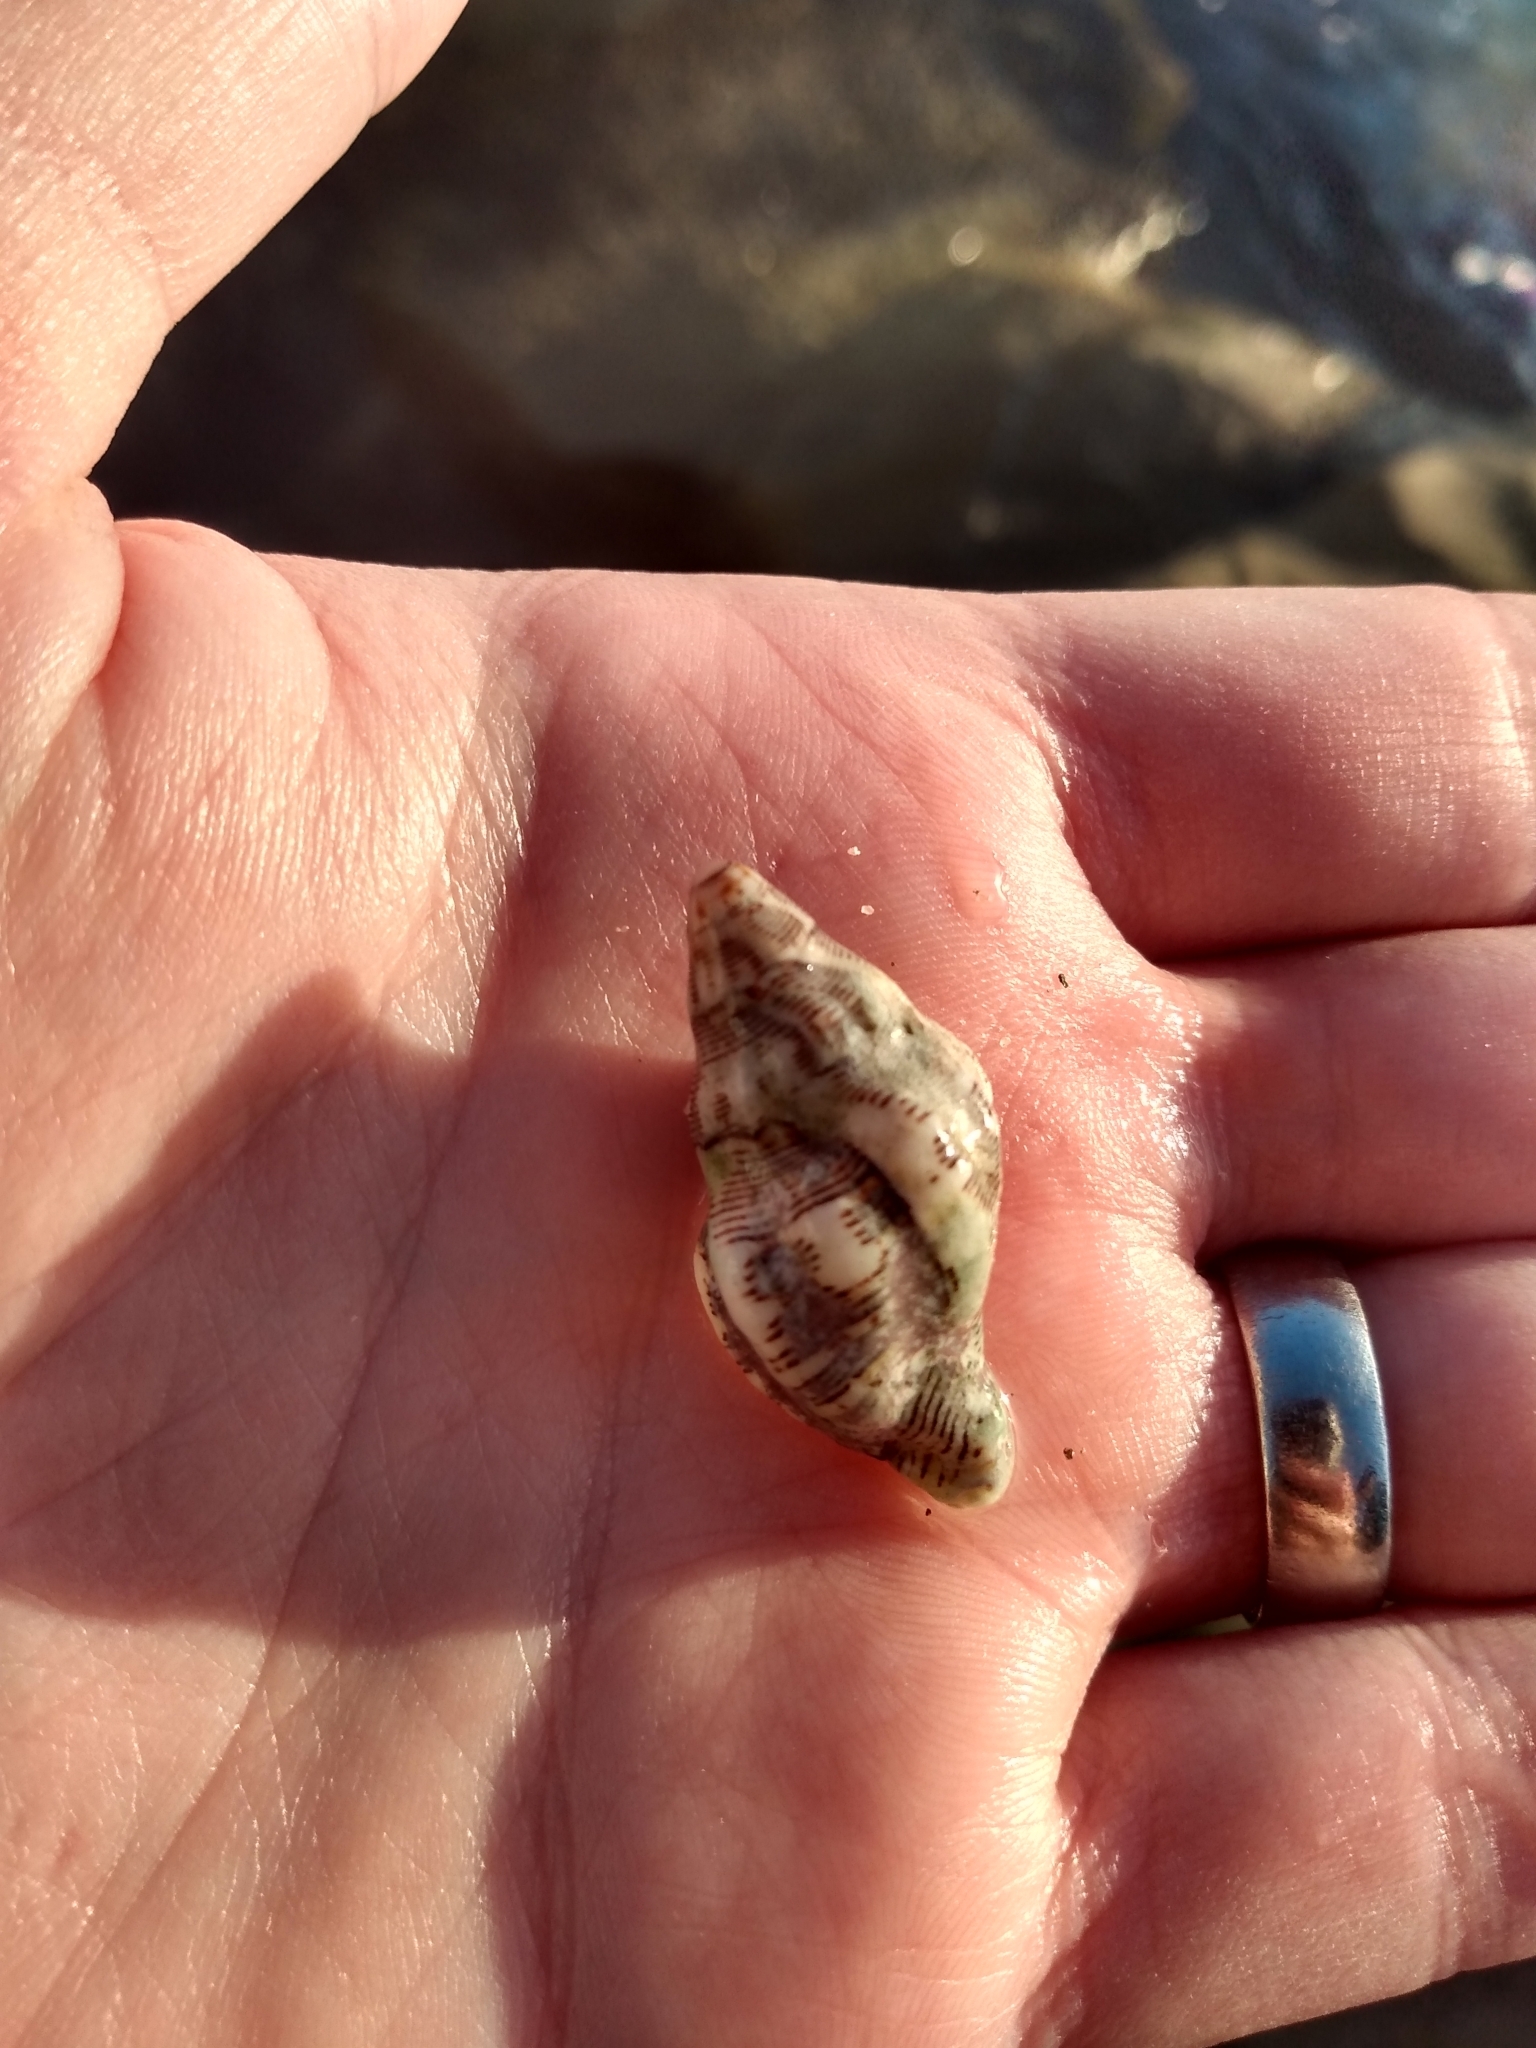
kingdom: Animalia
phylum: Mollusca
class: Gastropoda
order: Neogastropoda
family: Muricidae
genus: Roperia
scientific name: Roperia poulsoni
